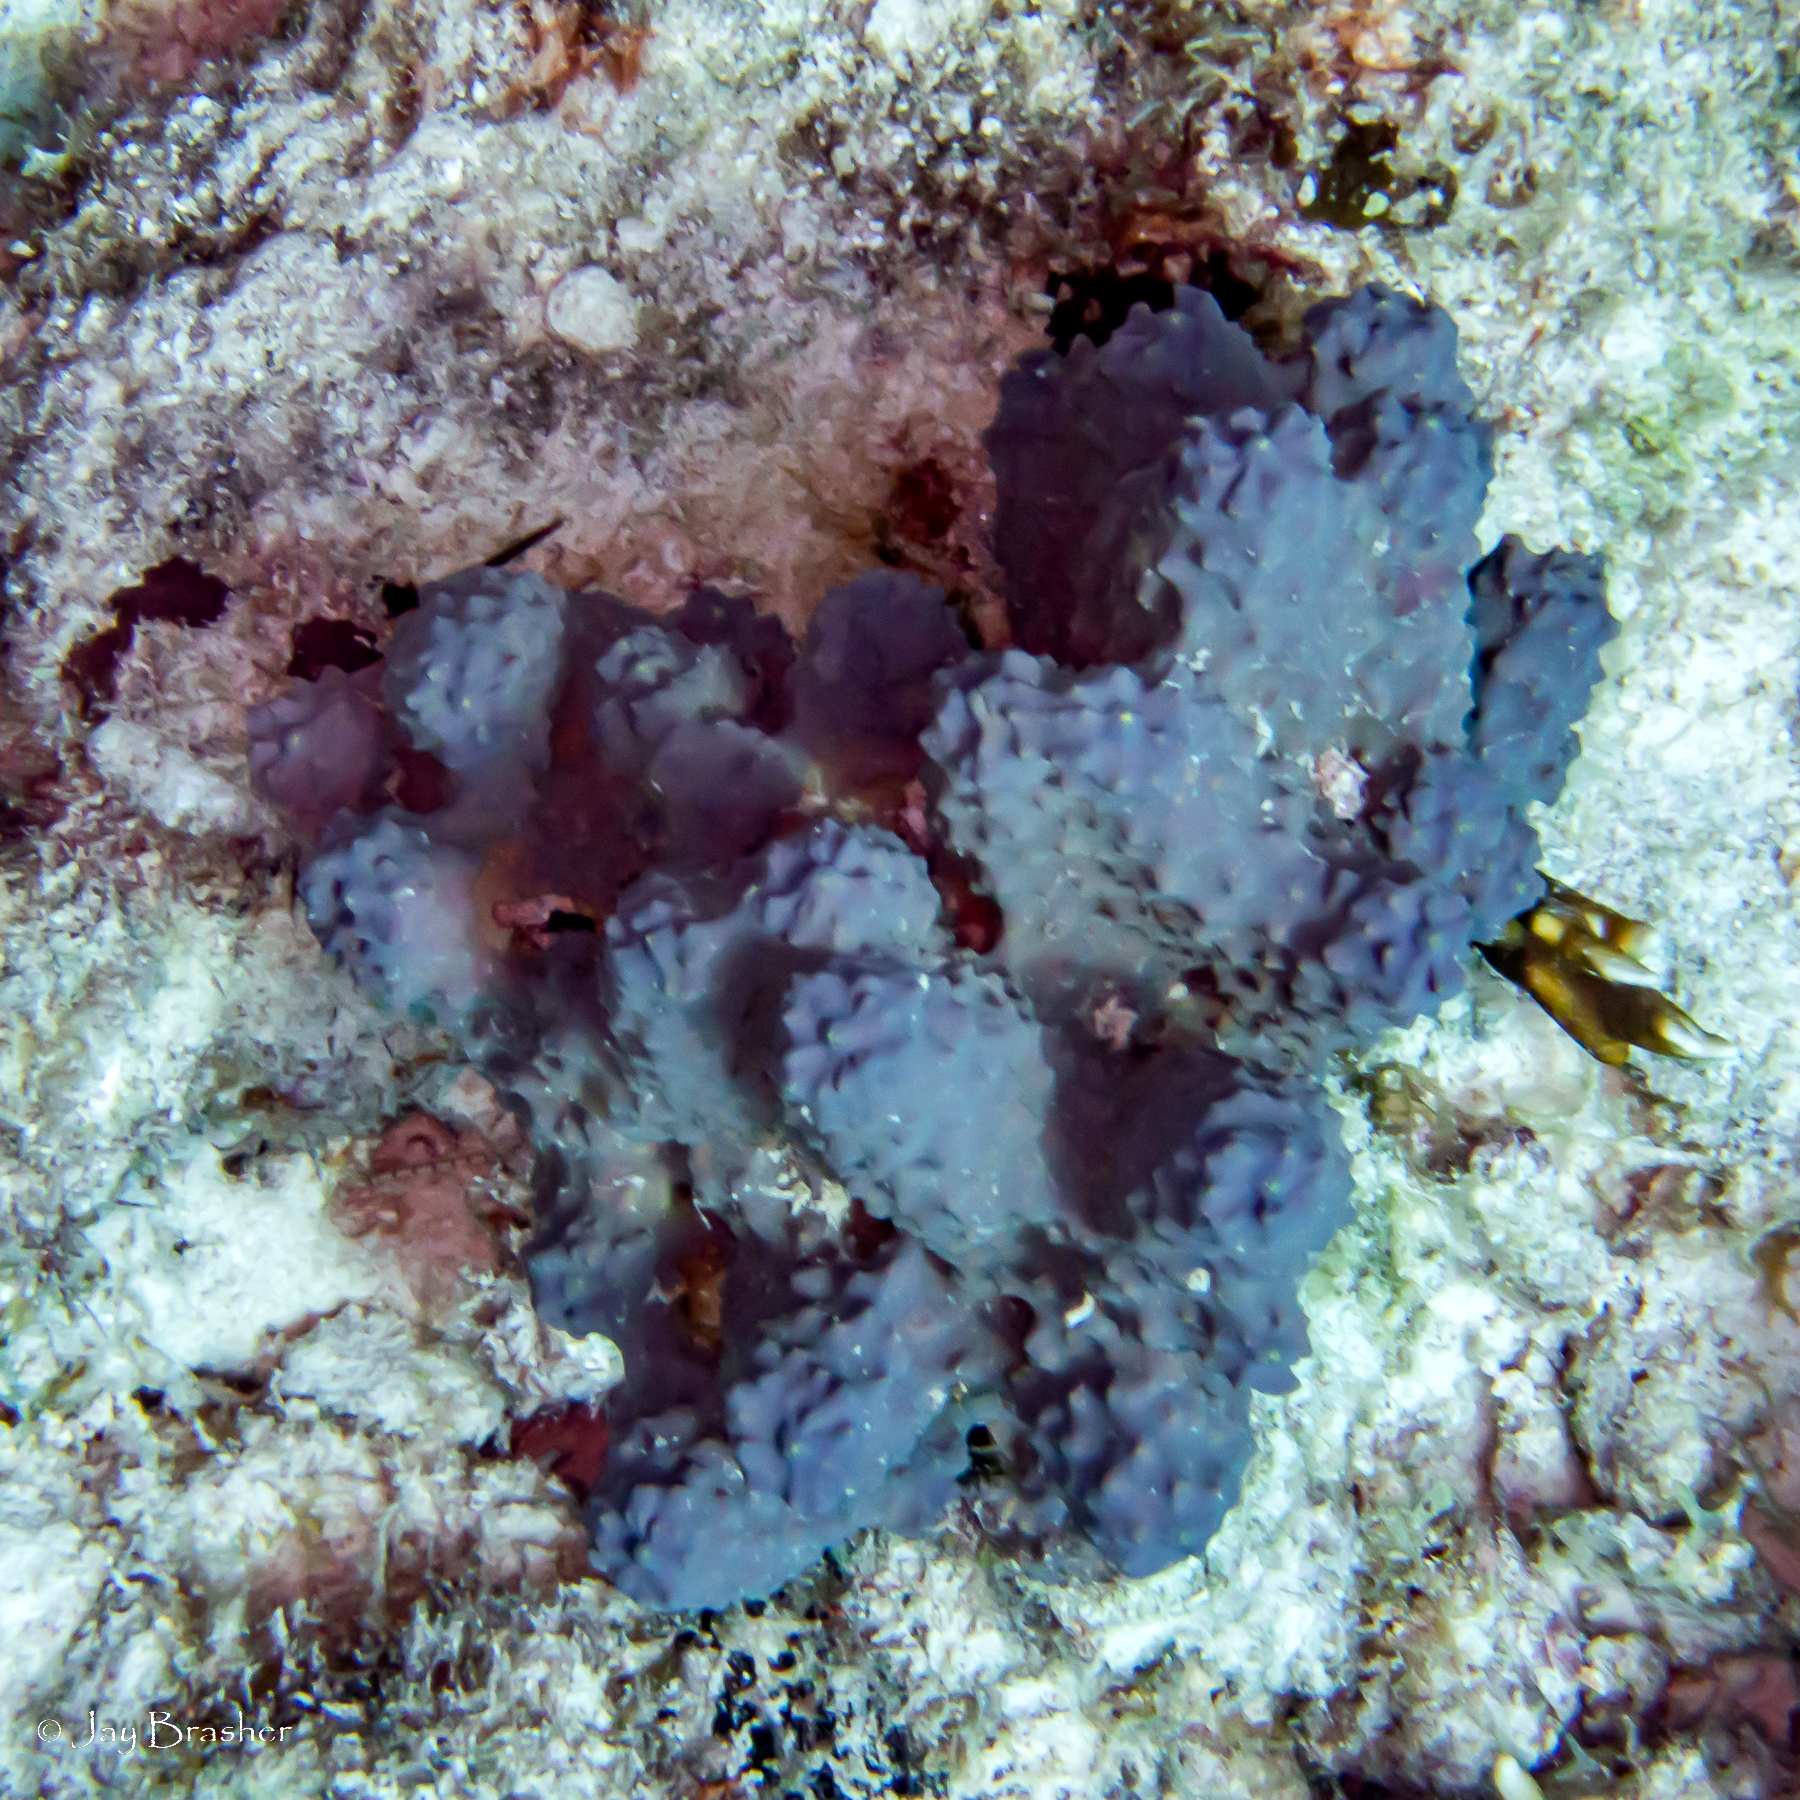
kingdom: Animalia
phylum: Porifera
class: Demospongiae
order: Verongiida
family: Aplysinidae
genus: Aiolochroia
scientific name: Aiolochroia crassa
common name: Branching tube sponge
